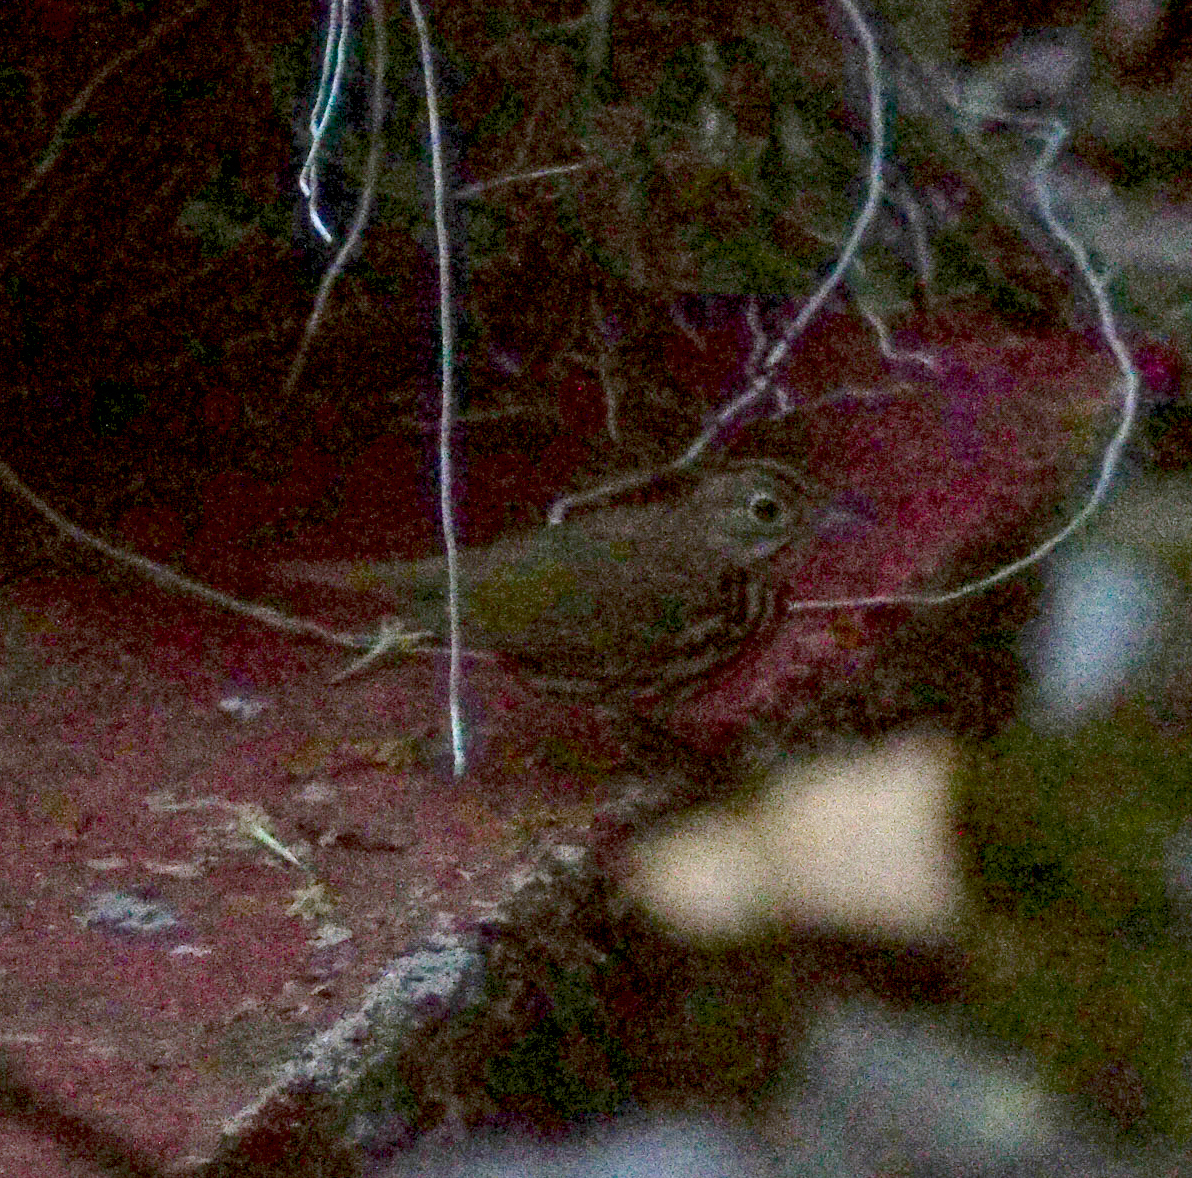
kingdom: Animalia
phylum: Chordata
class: Aves
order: Passeriformes
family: Parulidae
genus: Seiurus
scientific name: Seiurus aurocapilla
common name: Ovenbird
